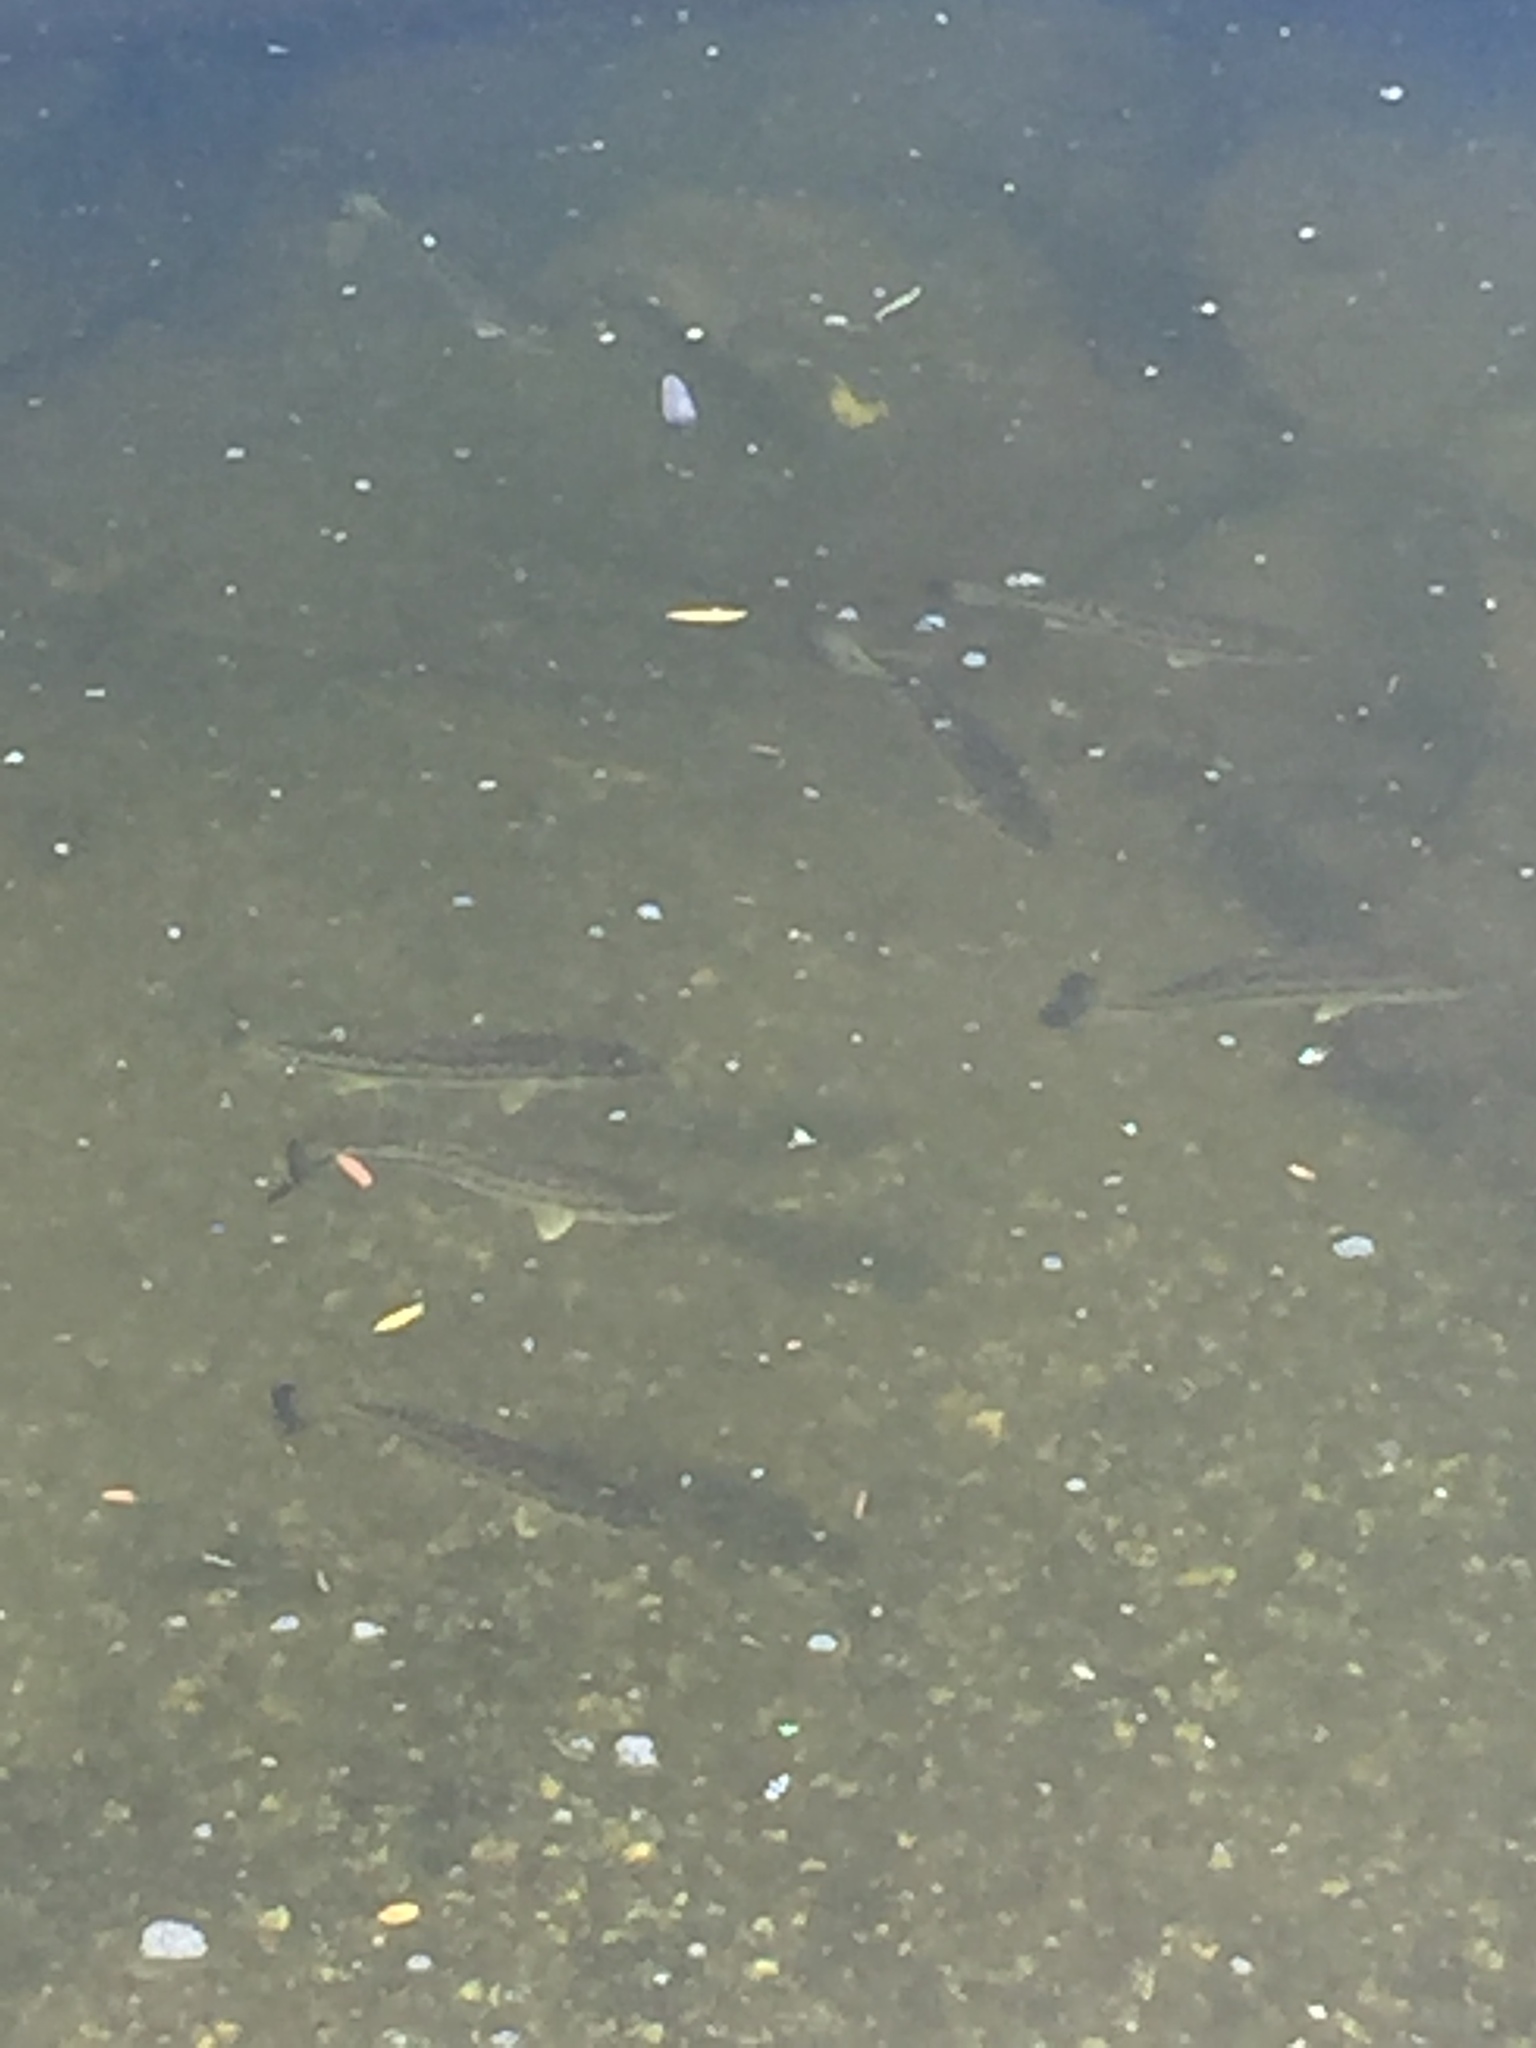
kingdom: Animalia
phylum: Chordata
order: Perciformes
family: Centrarchidae
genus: Micropterus
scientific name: Micropterus
